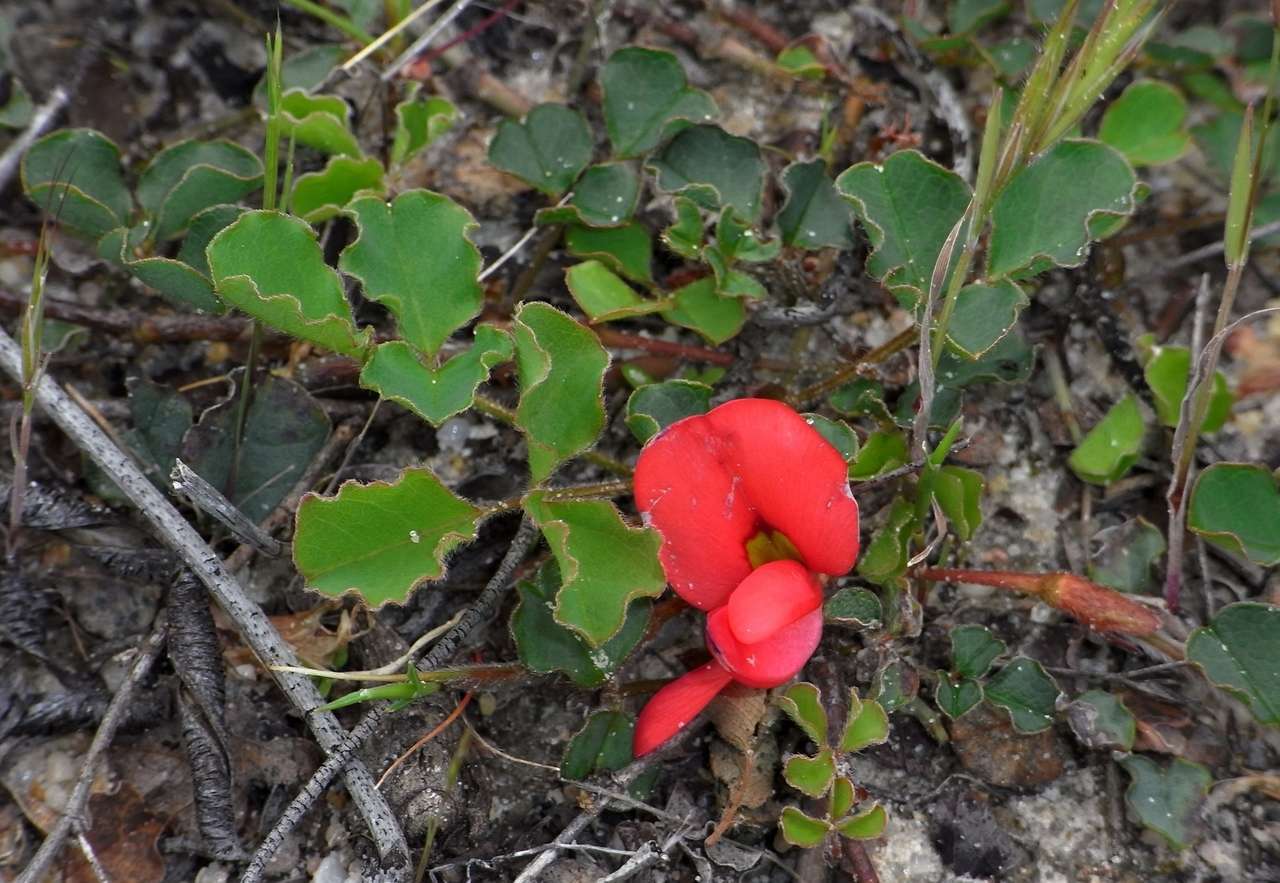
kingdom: Plantae
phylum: Tracheophyta
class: Magnoliopsida
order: Fabales
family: Fabaceae
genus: Kennedia
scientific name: Kennedia prostrata
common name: Running-postman
